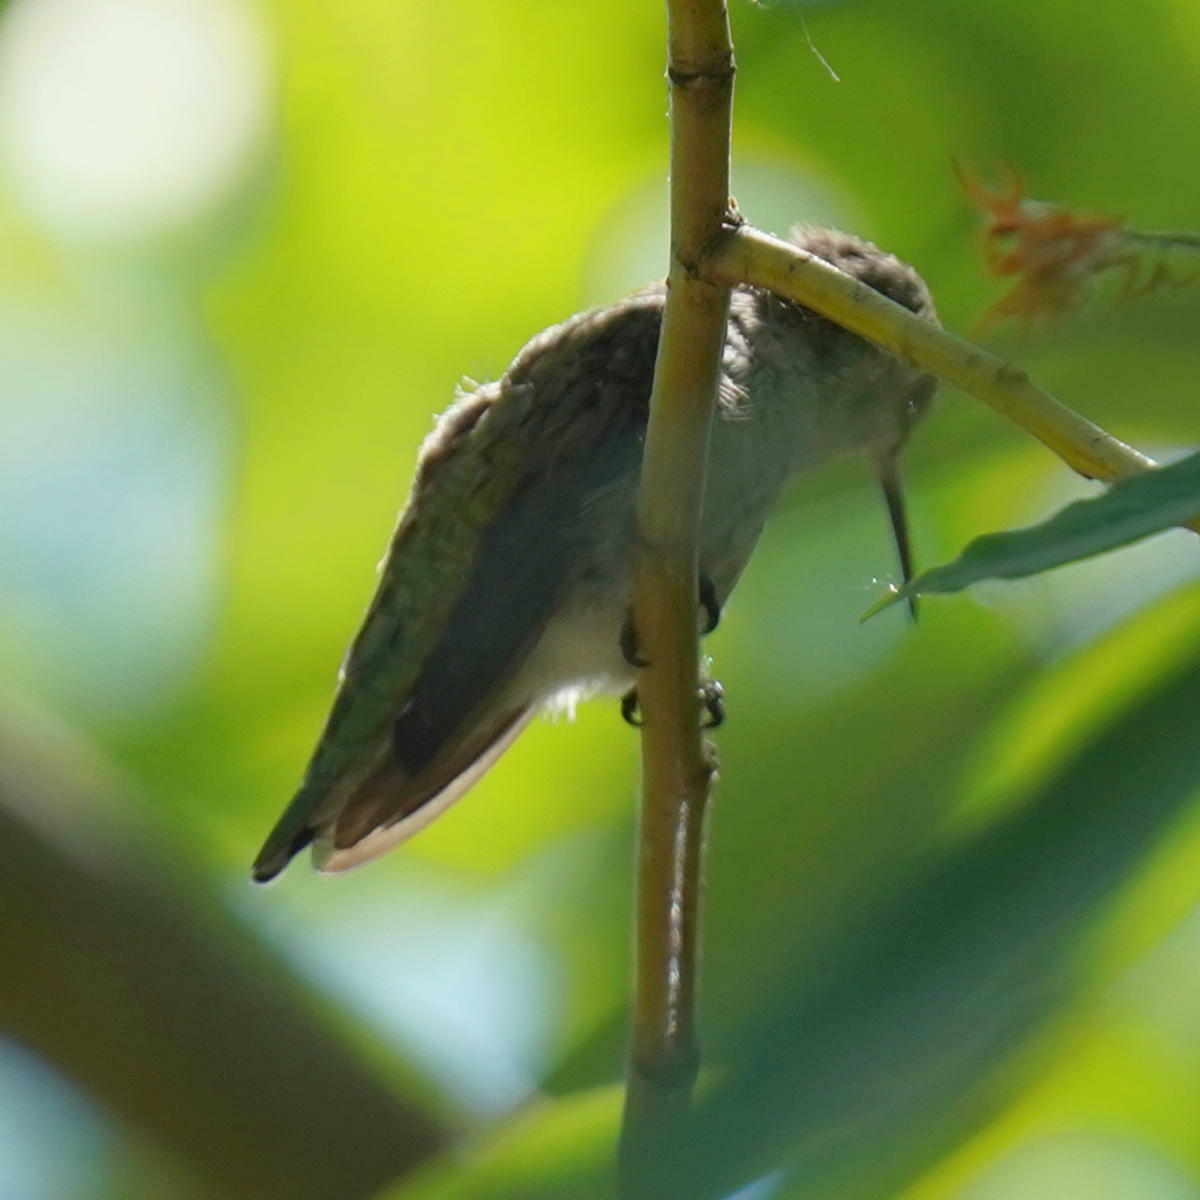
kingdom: Animalia
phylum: Chordata
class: Aves
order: Apodiformes
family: Trochilidae
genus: Calypte
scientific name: Calypte anna
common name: Anna's hummingbird
